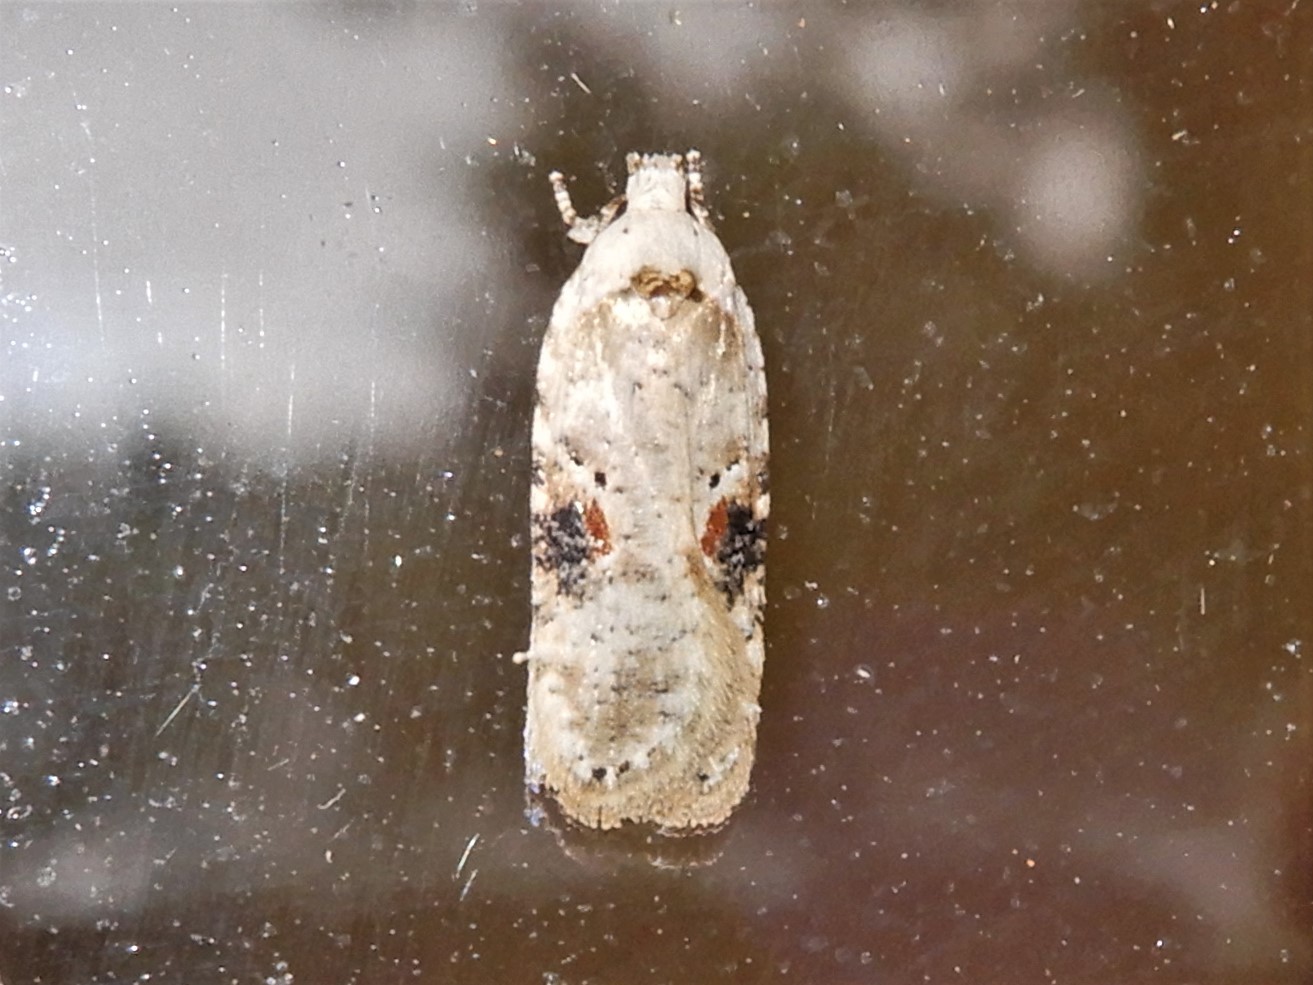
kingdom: Animalia
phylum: Arthropoda
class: Insecta
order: Lepidoptera
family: Depressariidae
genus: Agonopterix
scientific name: Agonopterix alstroemeriana
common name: Moth
